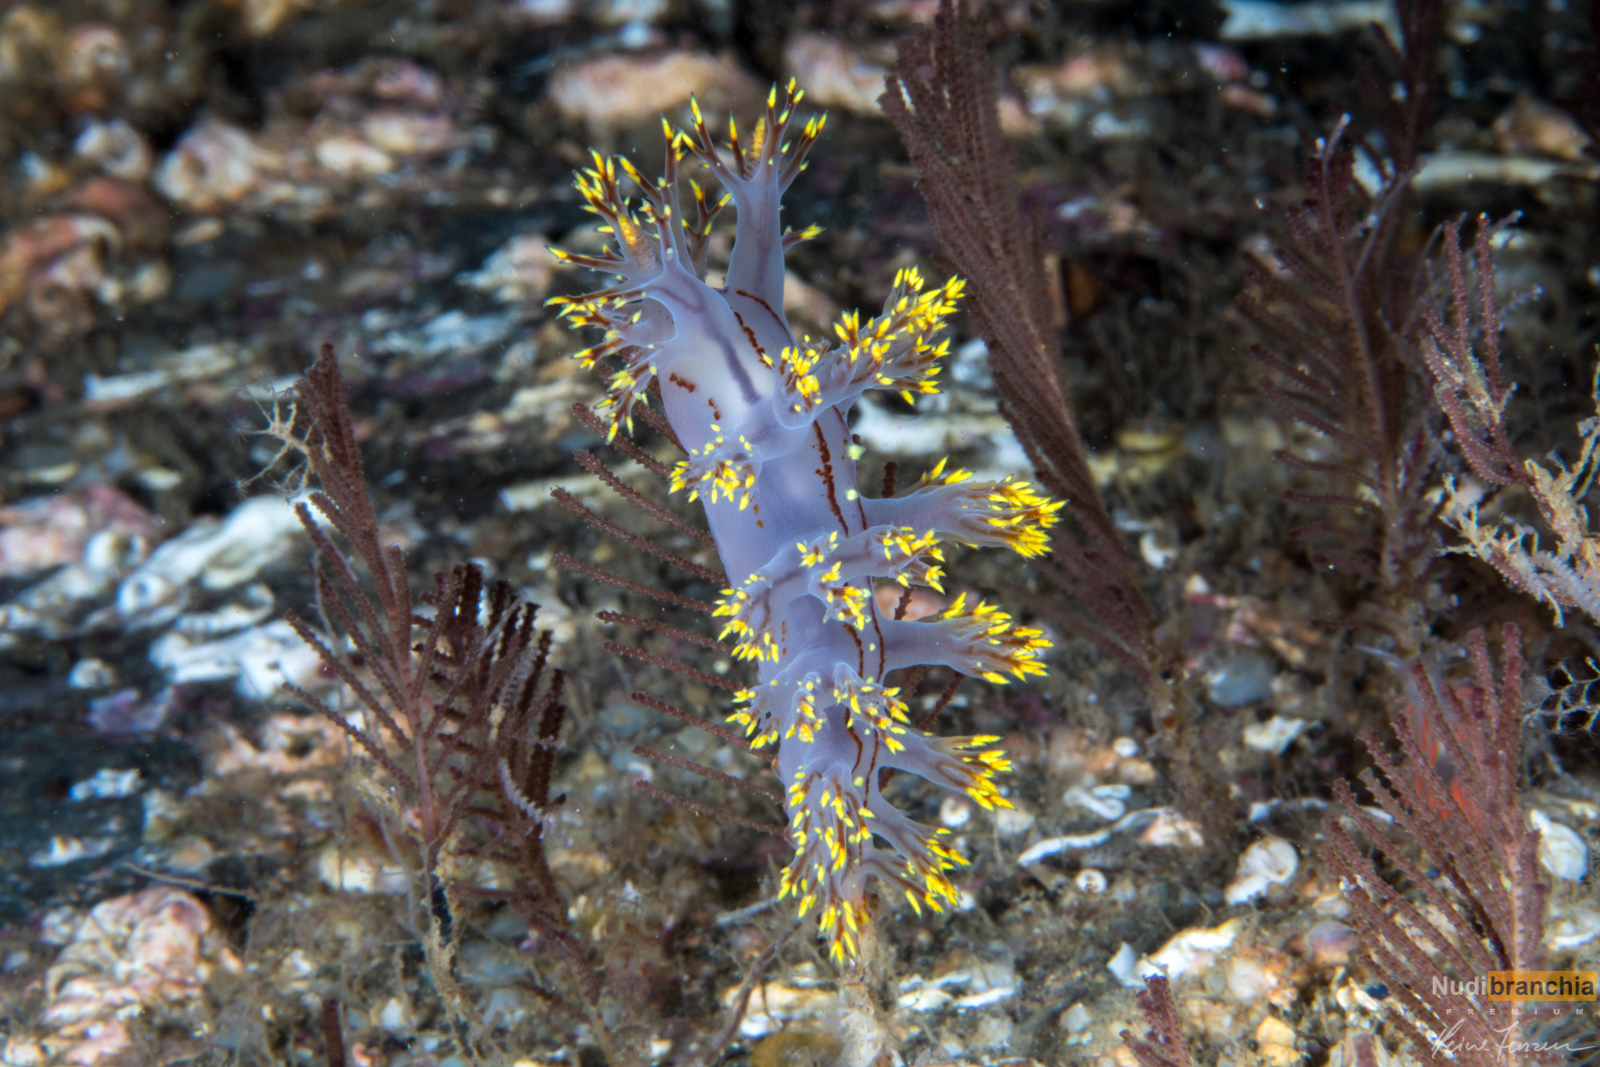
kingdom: Animalia
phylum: Mollusca
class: Gastropoda
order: Nudibranchia
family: Dendronotidae
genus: Dendronotus
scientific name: Dendronotus yrjargul
